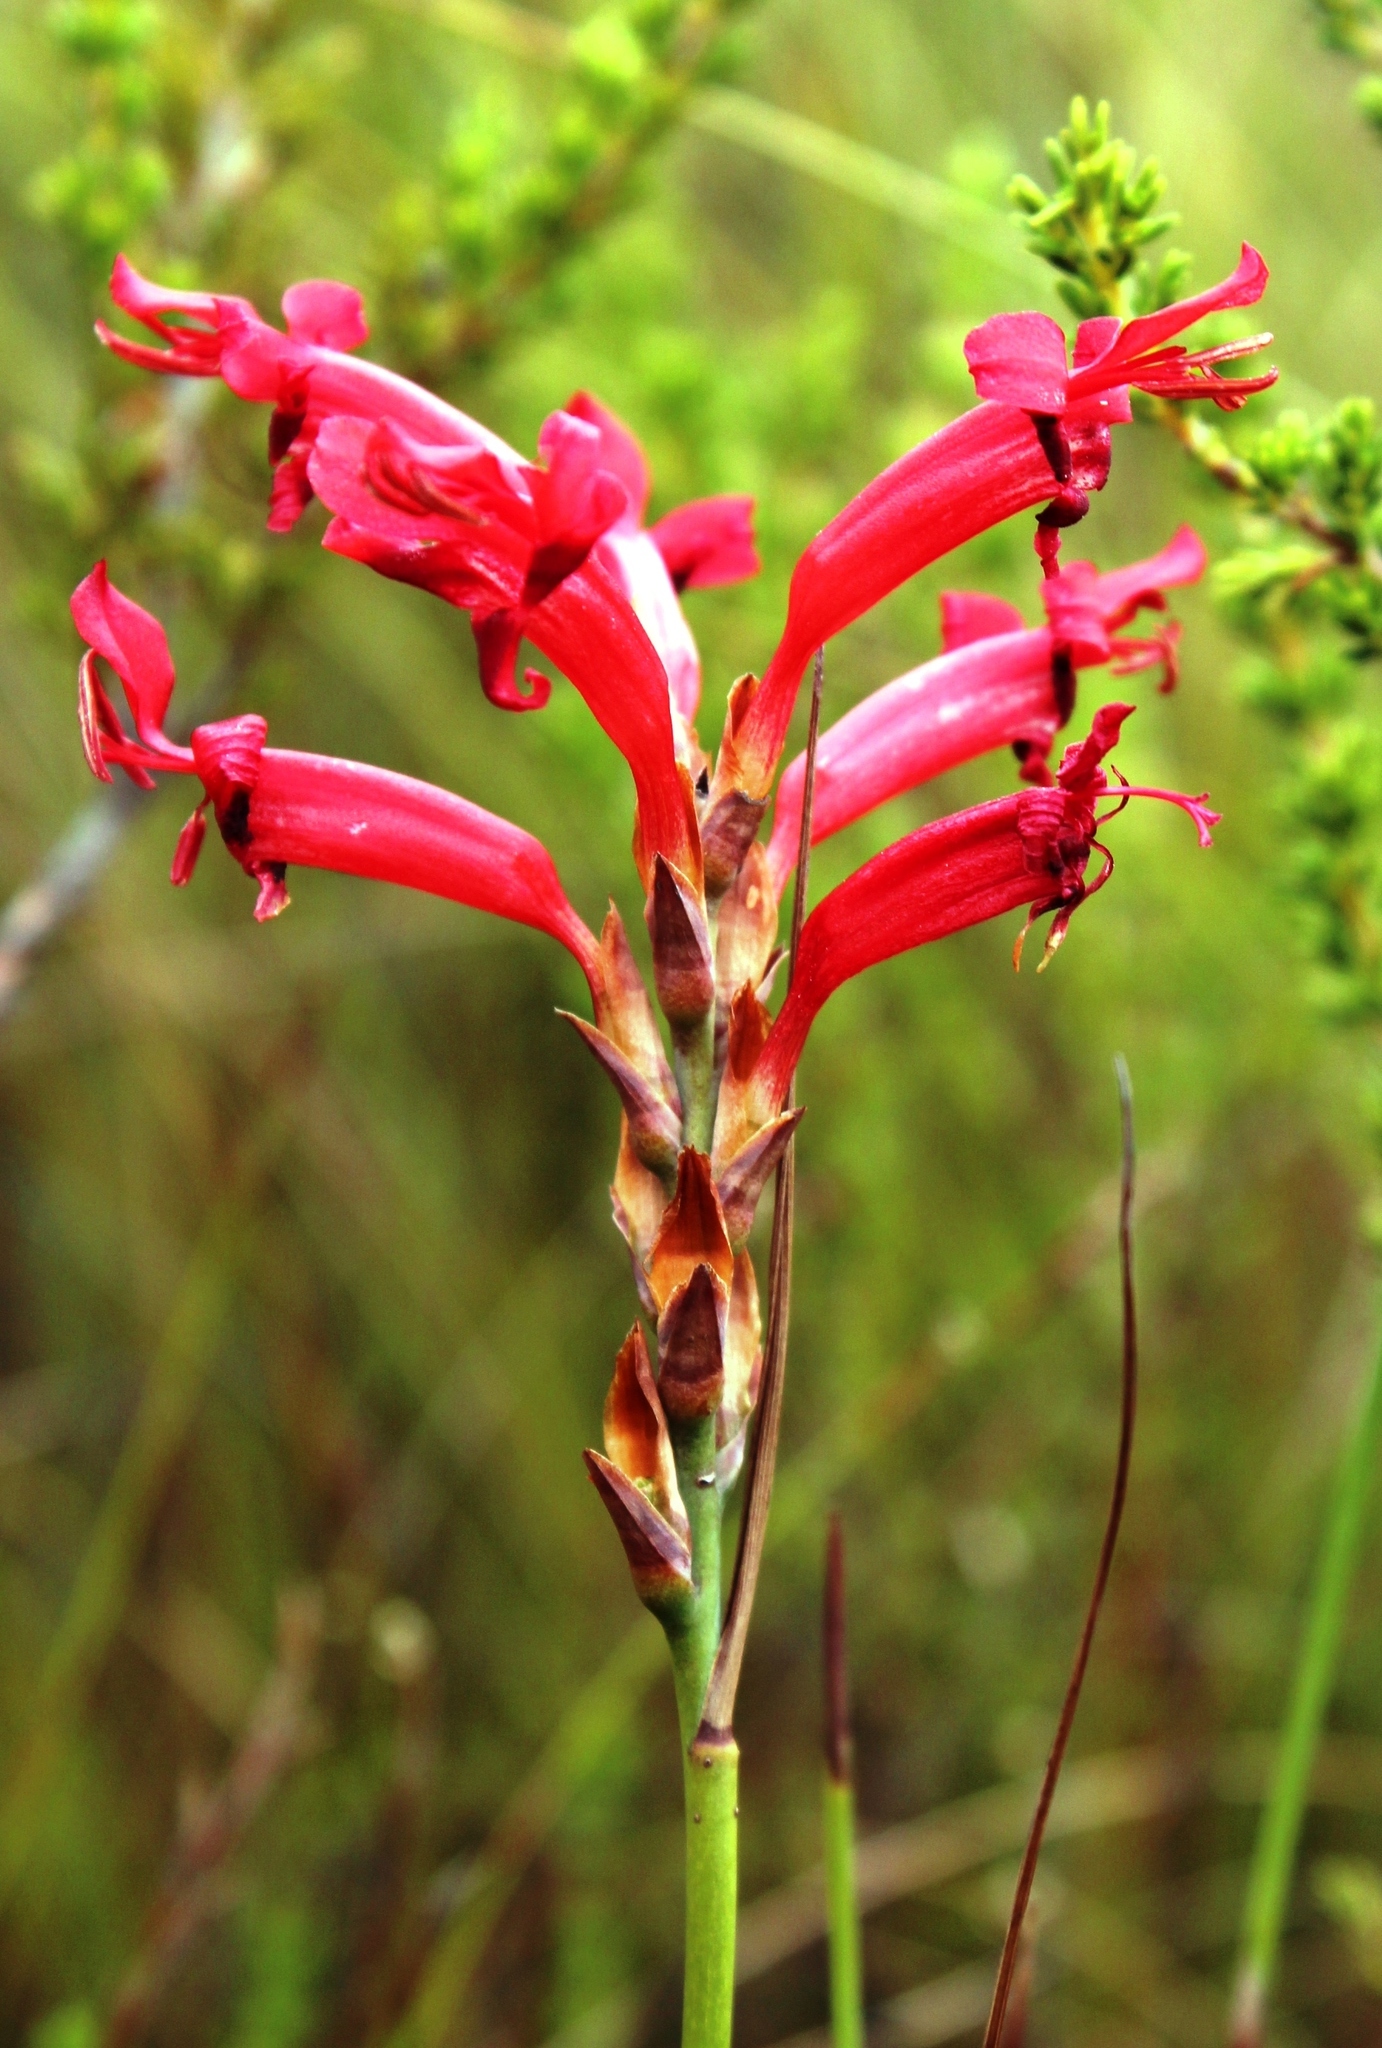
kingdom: Plantae
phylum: Tracheophyta
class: Liliopsida
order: Asparagales
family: Iridaceae
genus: Tritoniopsis
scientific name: Tritoniopsis triticea
